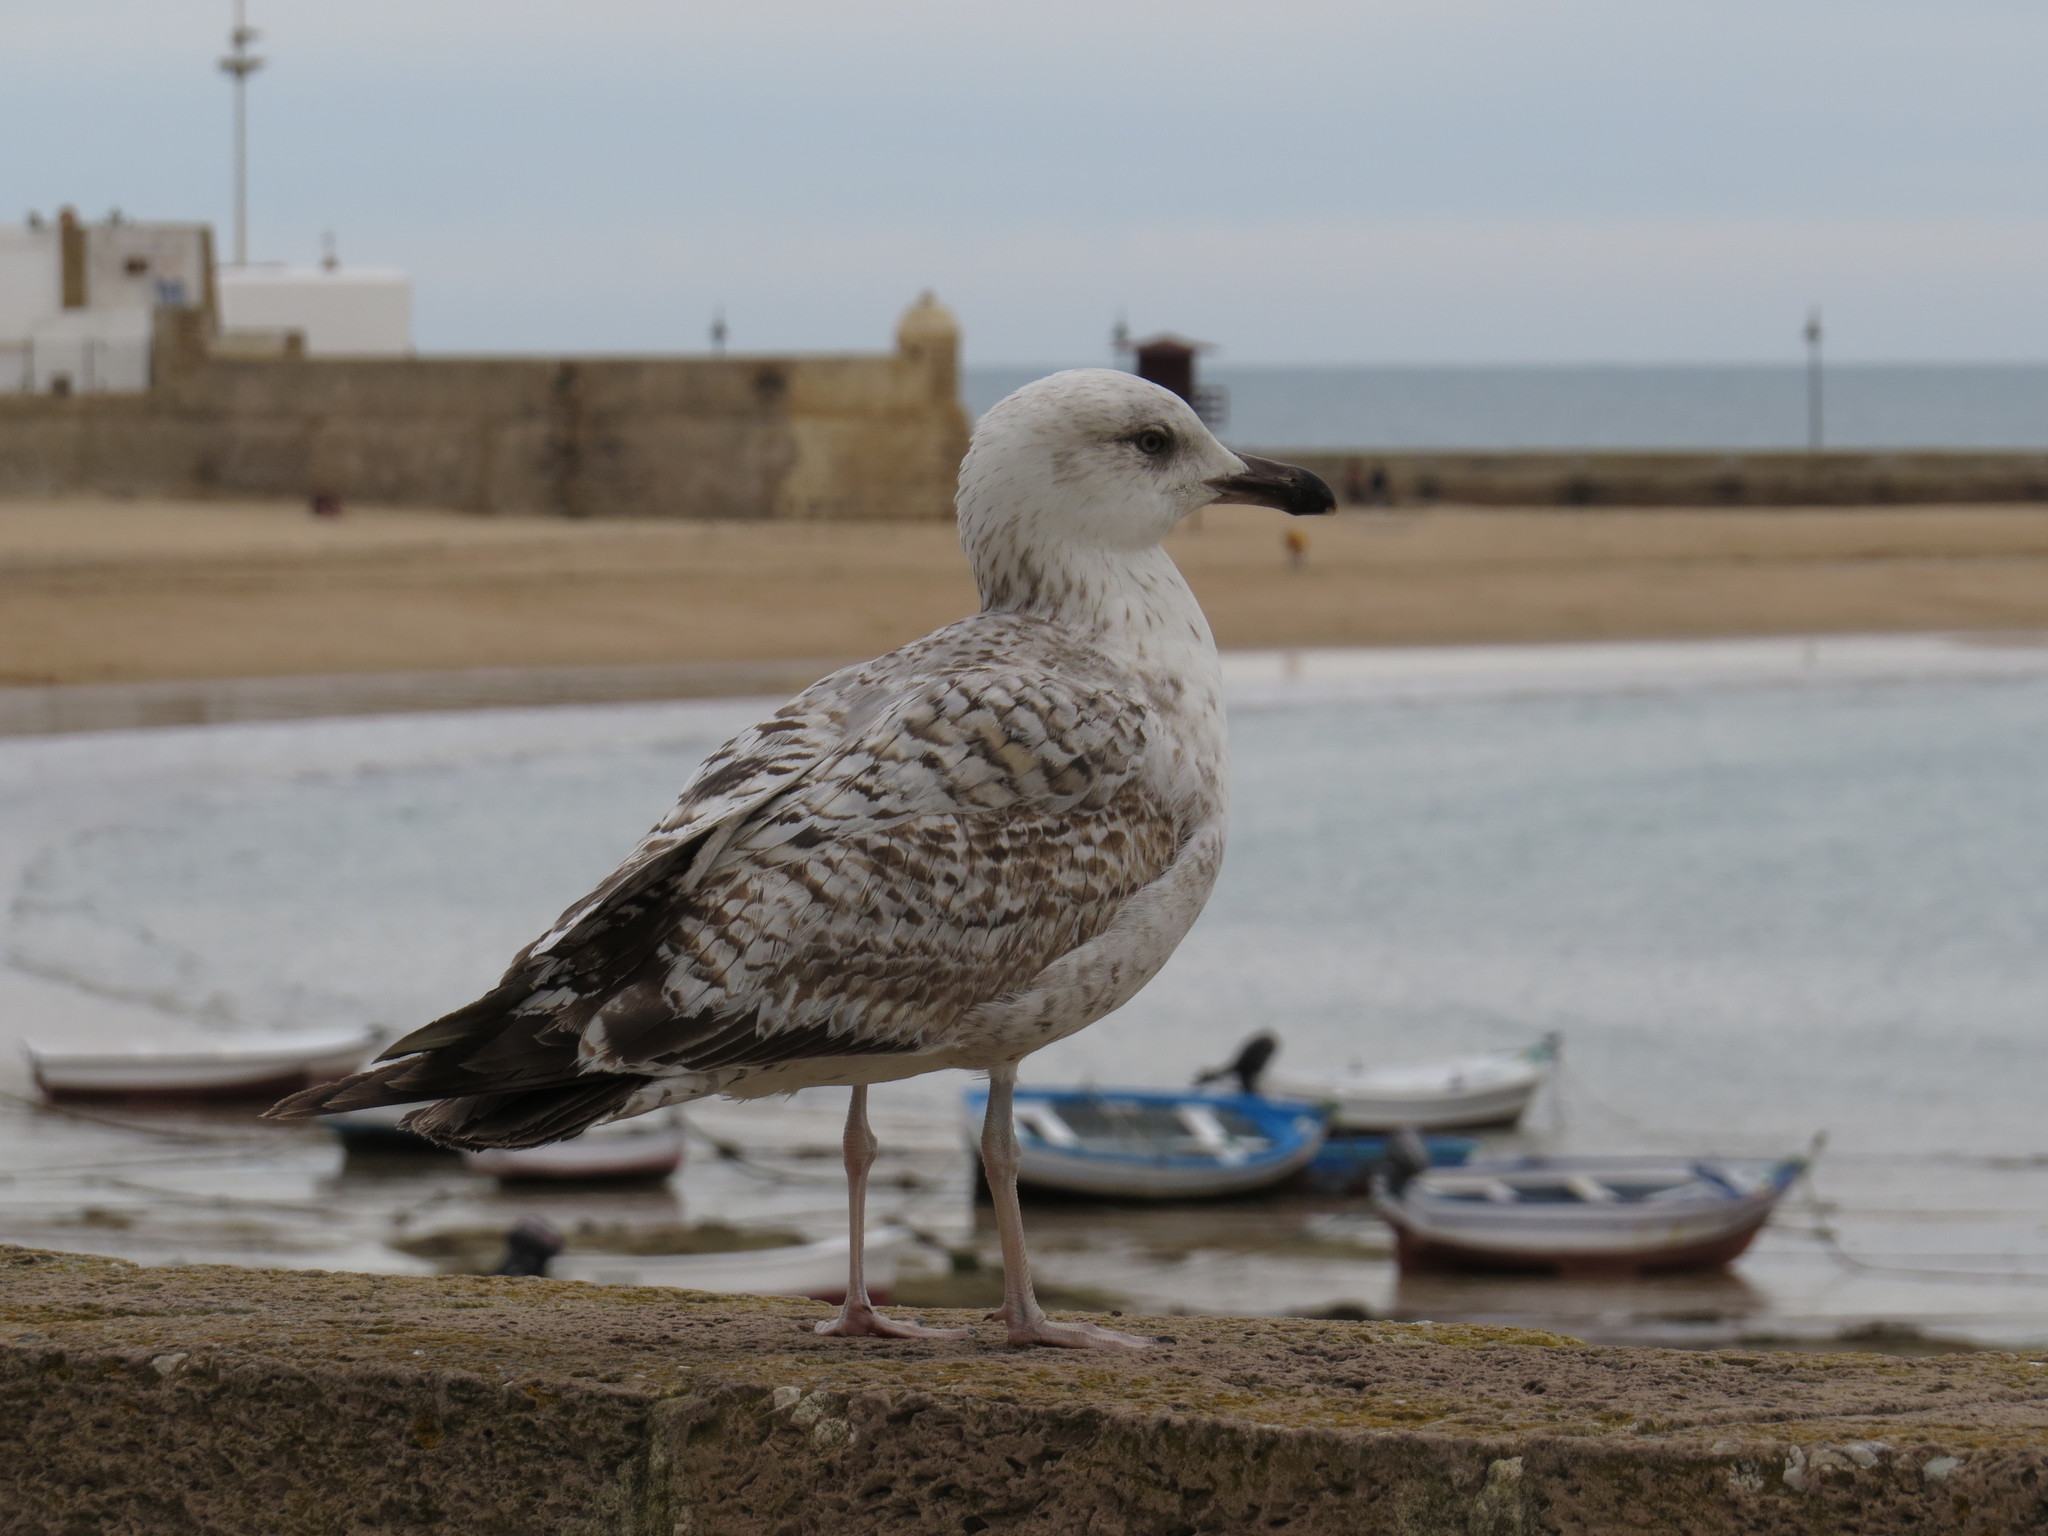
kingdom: Animalia
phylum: Chordata
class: Aves
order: Charadriiformes
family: Laridae
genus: Larus
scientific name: Larus michahellis
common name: Yellow-legged gull
